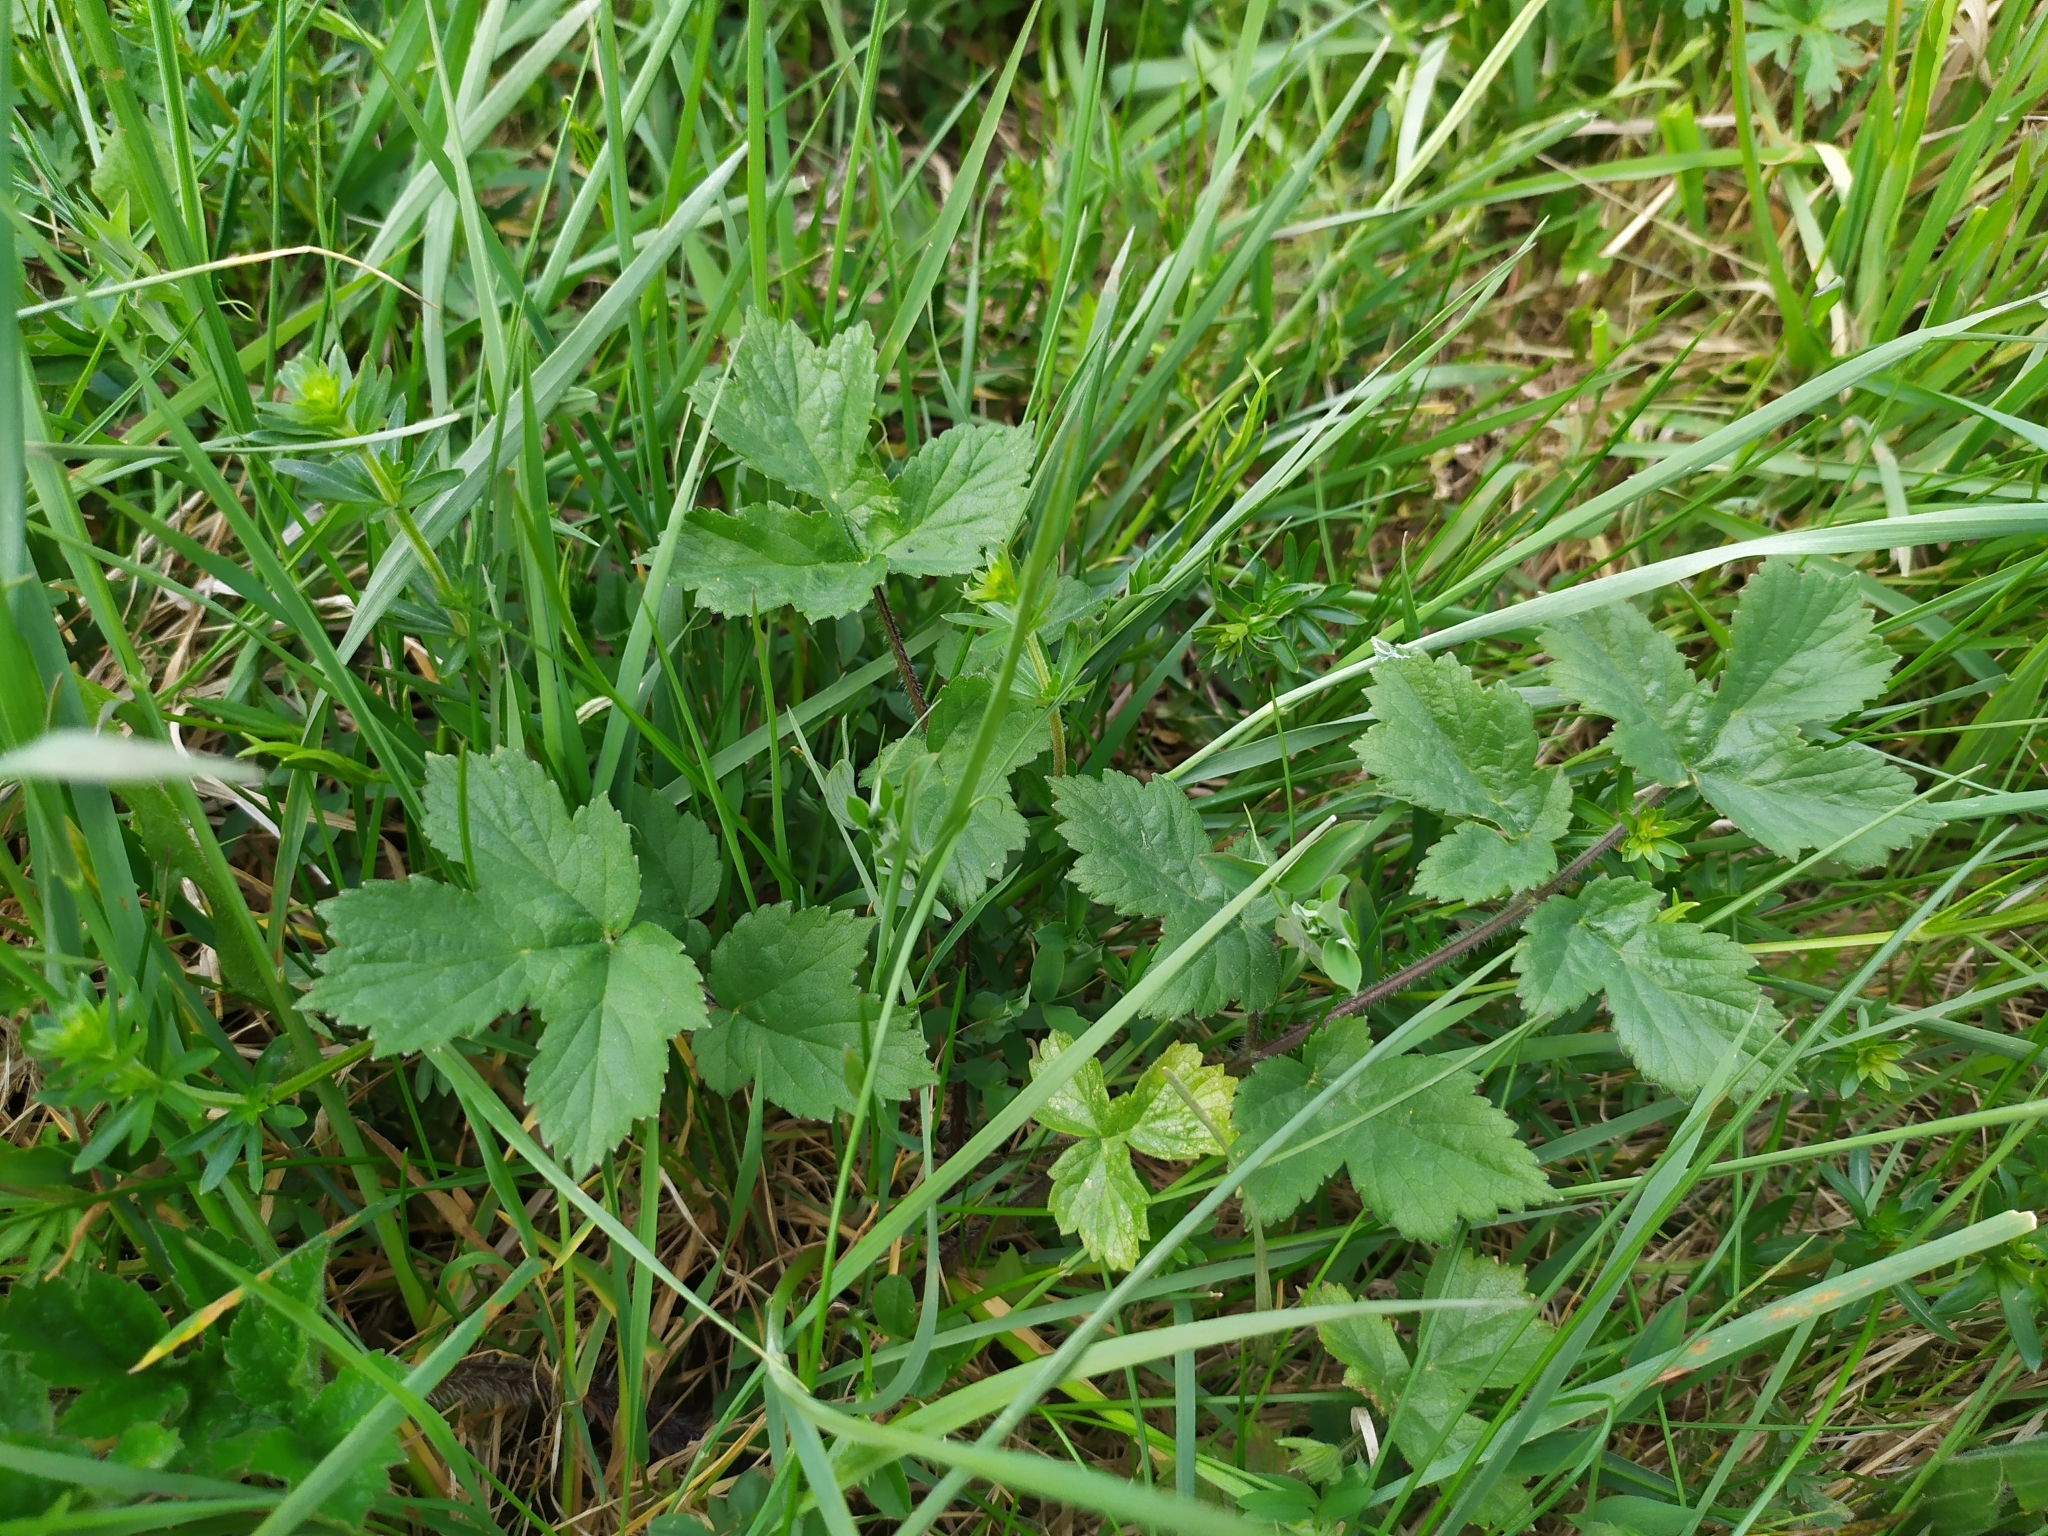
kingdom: Plantae
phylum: Tracheophyta
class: Magnoliopsida
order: Apiales
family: Apiaceae
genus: Heracleum
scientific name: Heracleum sphondylium
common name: Hogweed
